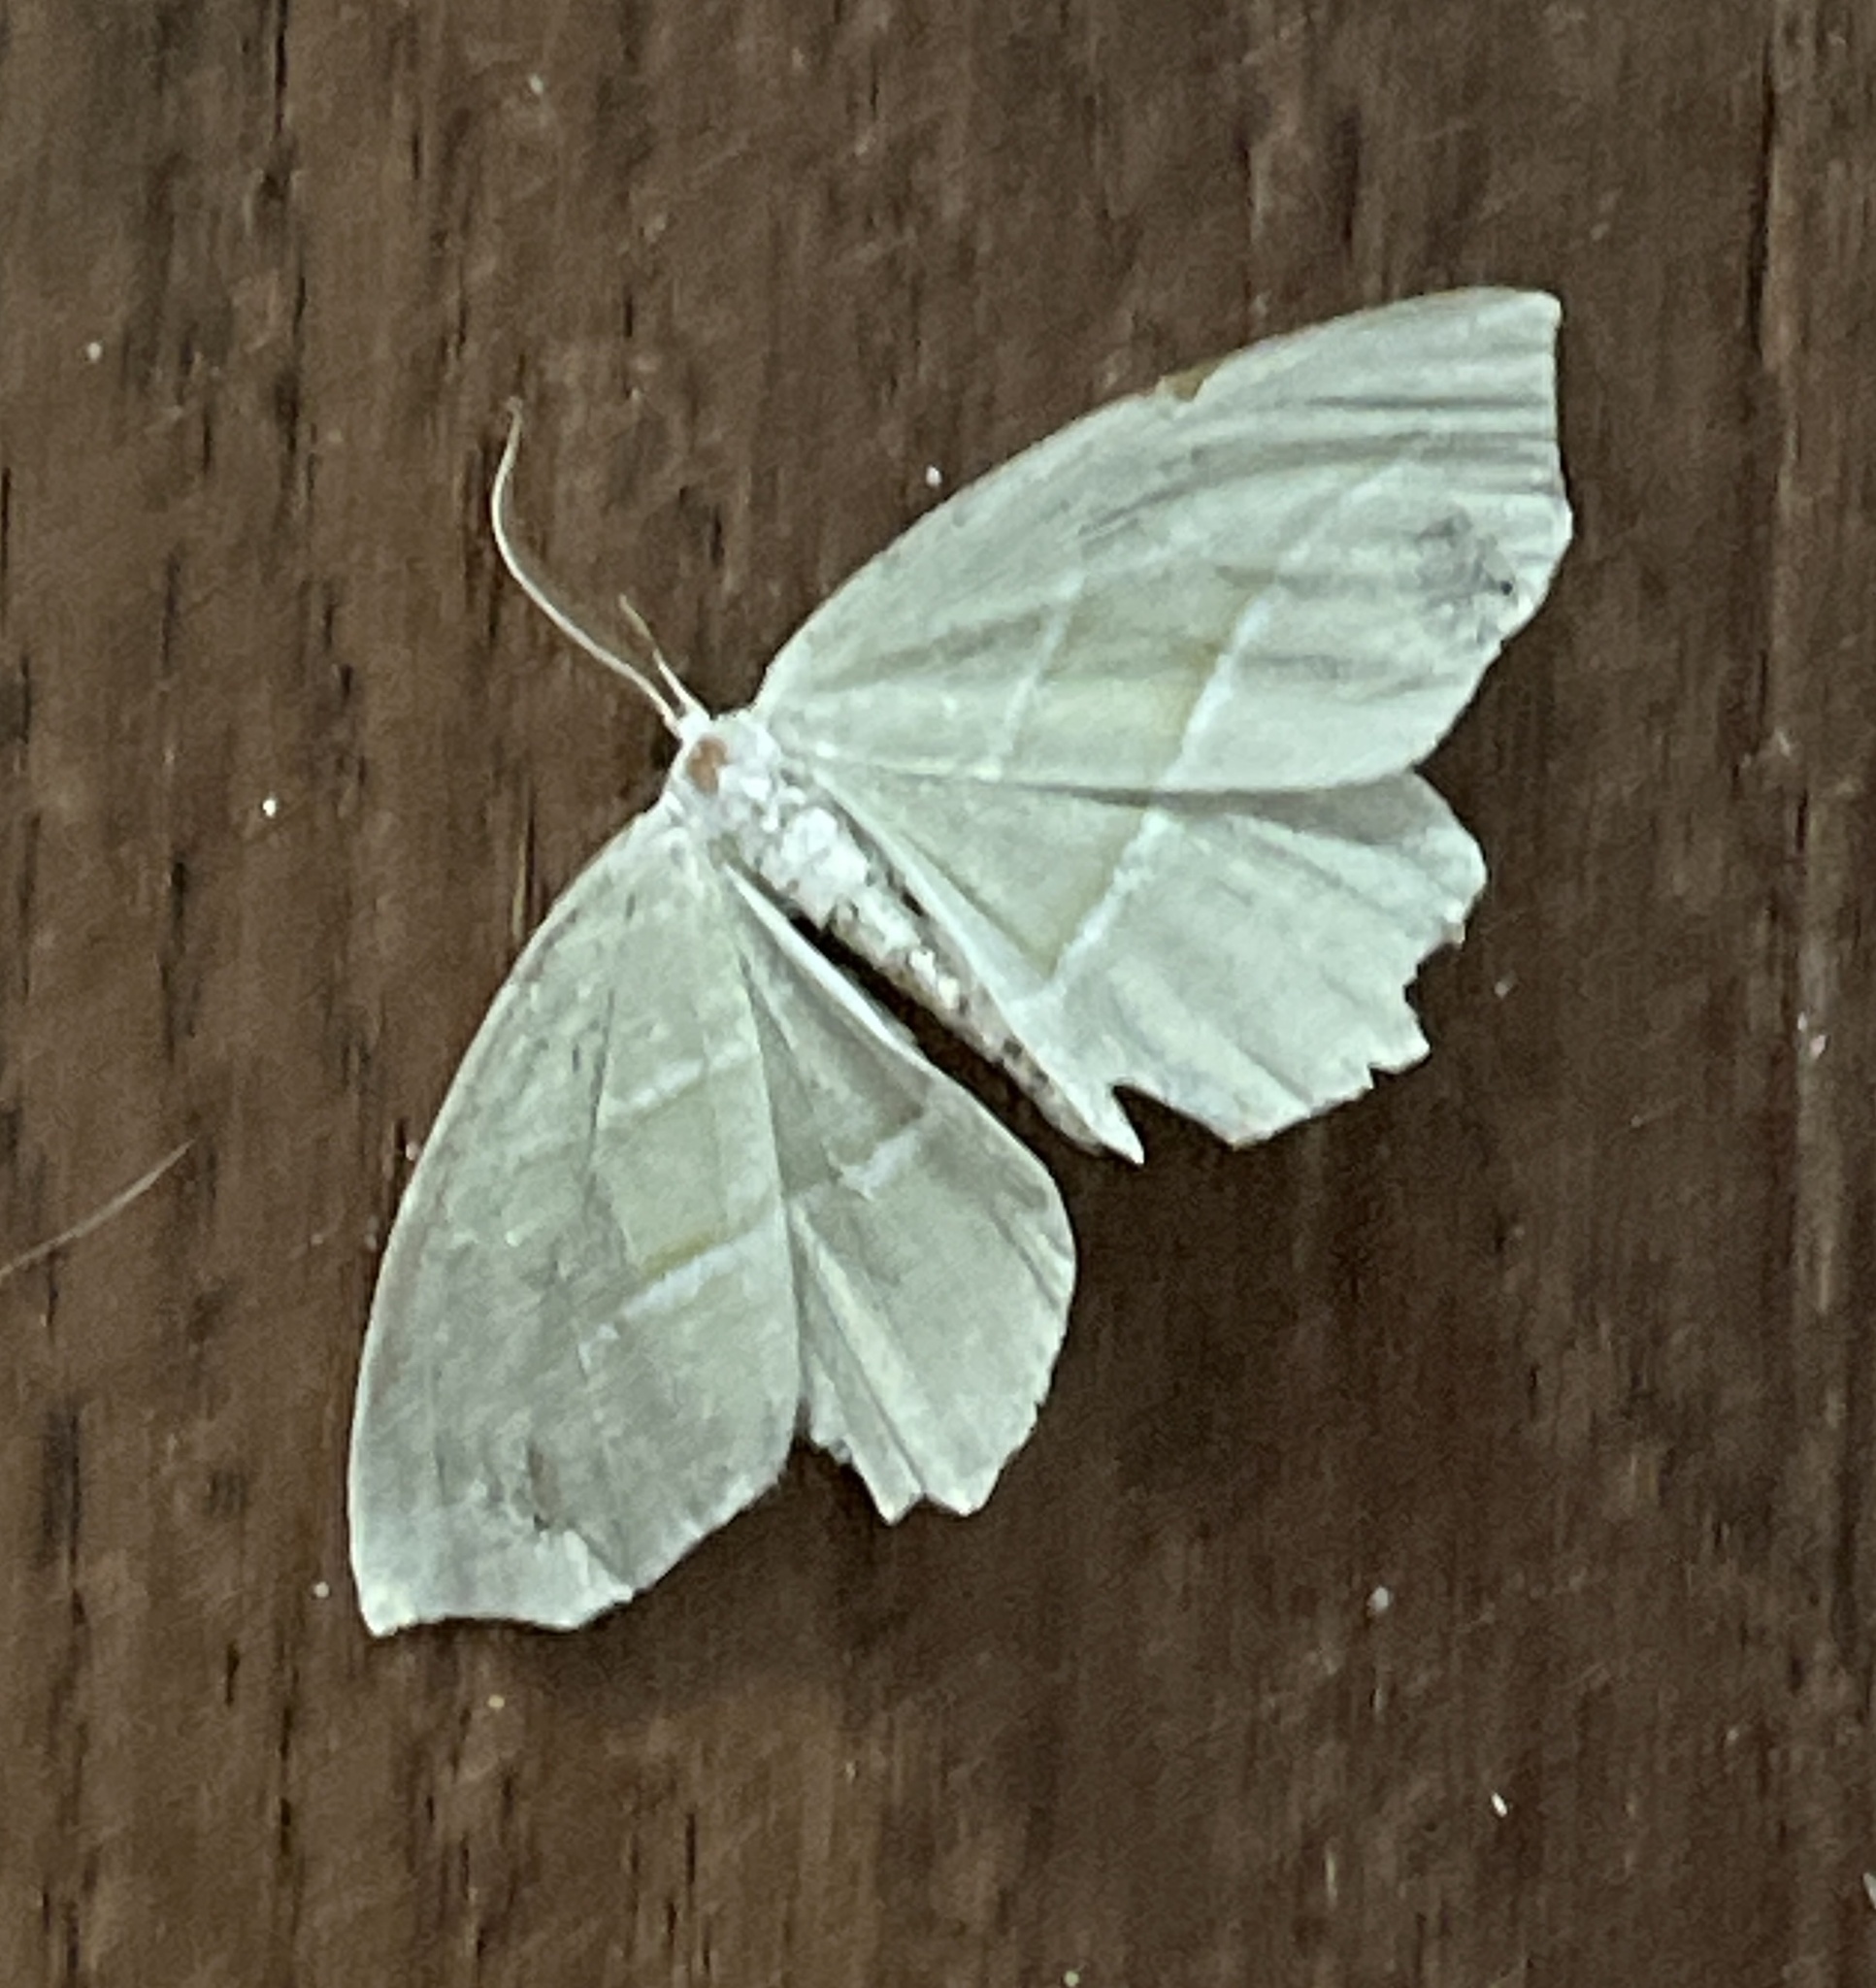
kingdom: Animalia
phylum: Arthropoda
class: Insecta
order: Lepidoptera
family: Geometridae
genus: Campaea
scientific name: Campaea perlata
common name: Fringed looper
